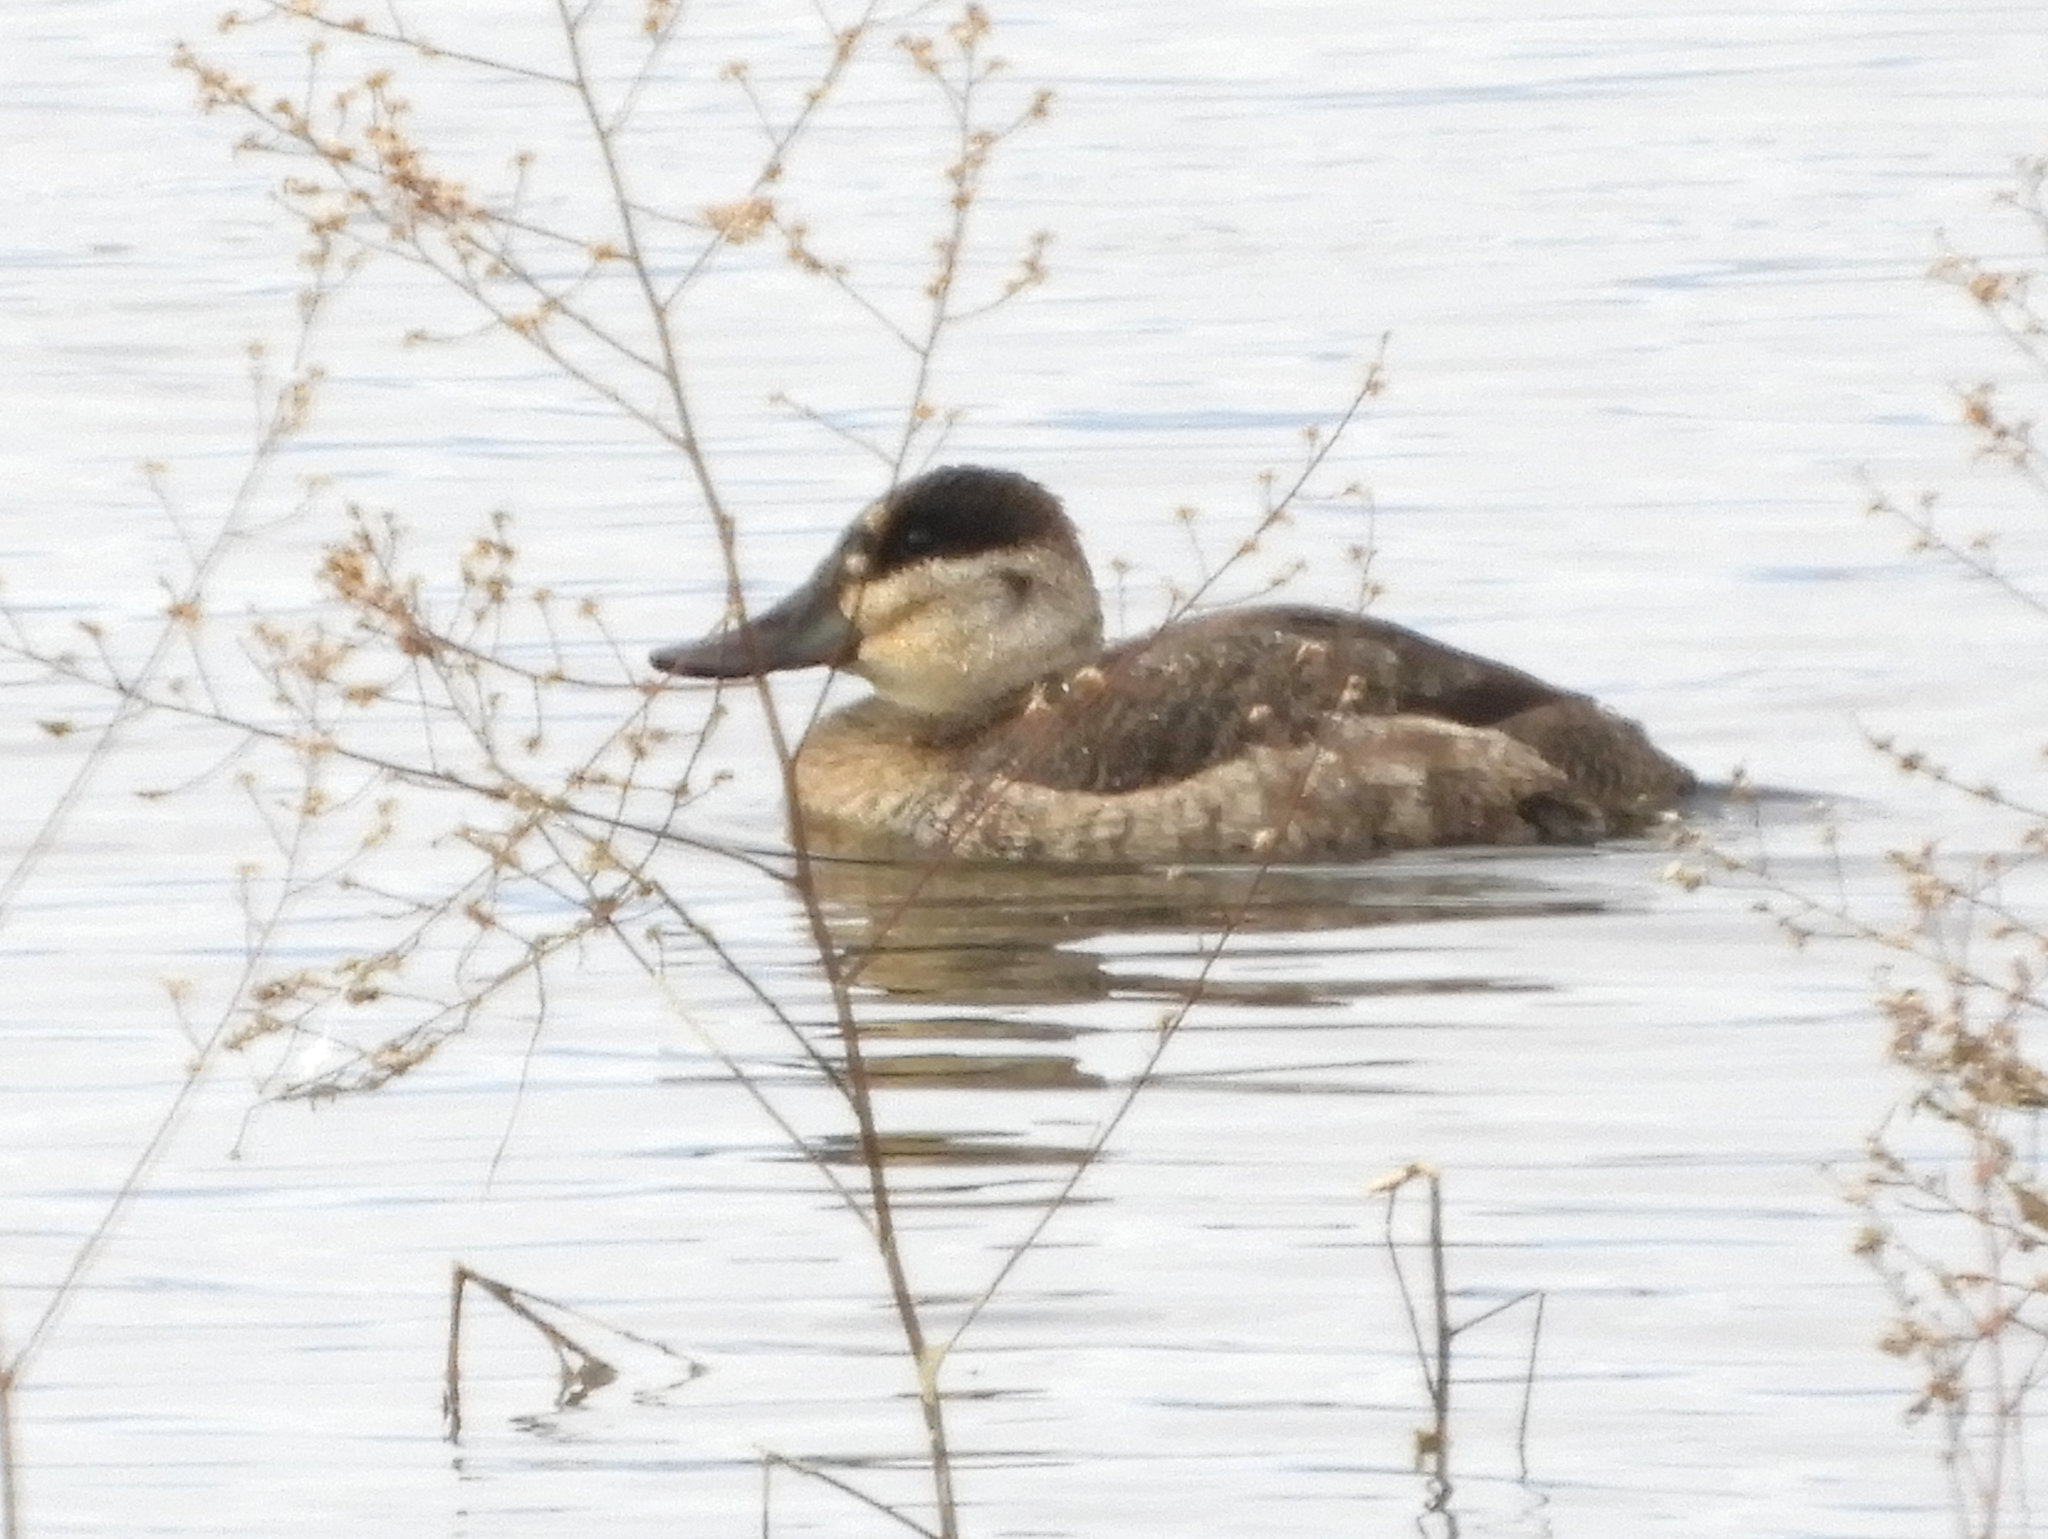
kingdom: Animalia
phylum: Chordata
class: Aves
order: Anseriformes
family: Anatidae
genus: Oxyura
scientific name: Oxyura jamaicensis
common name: Ruddy duck
